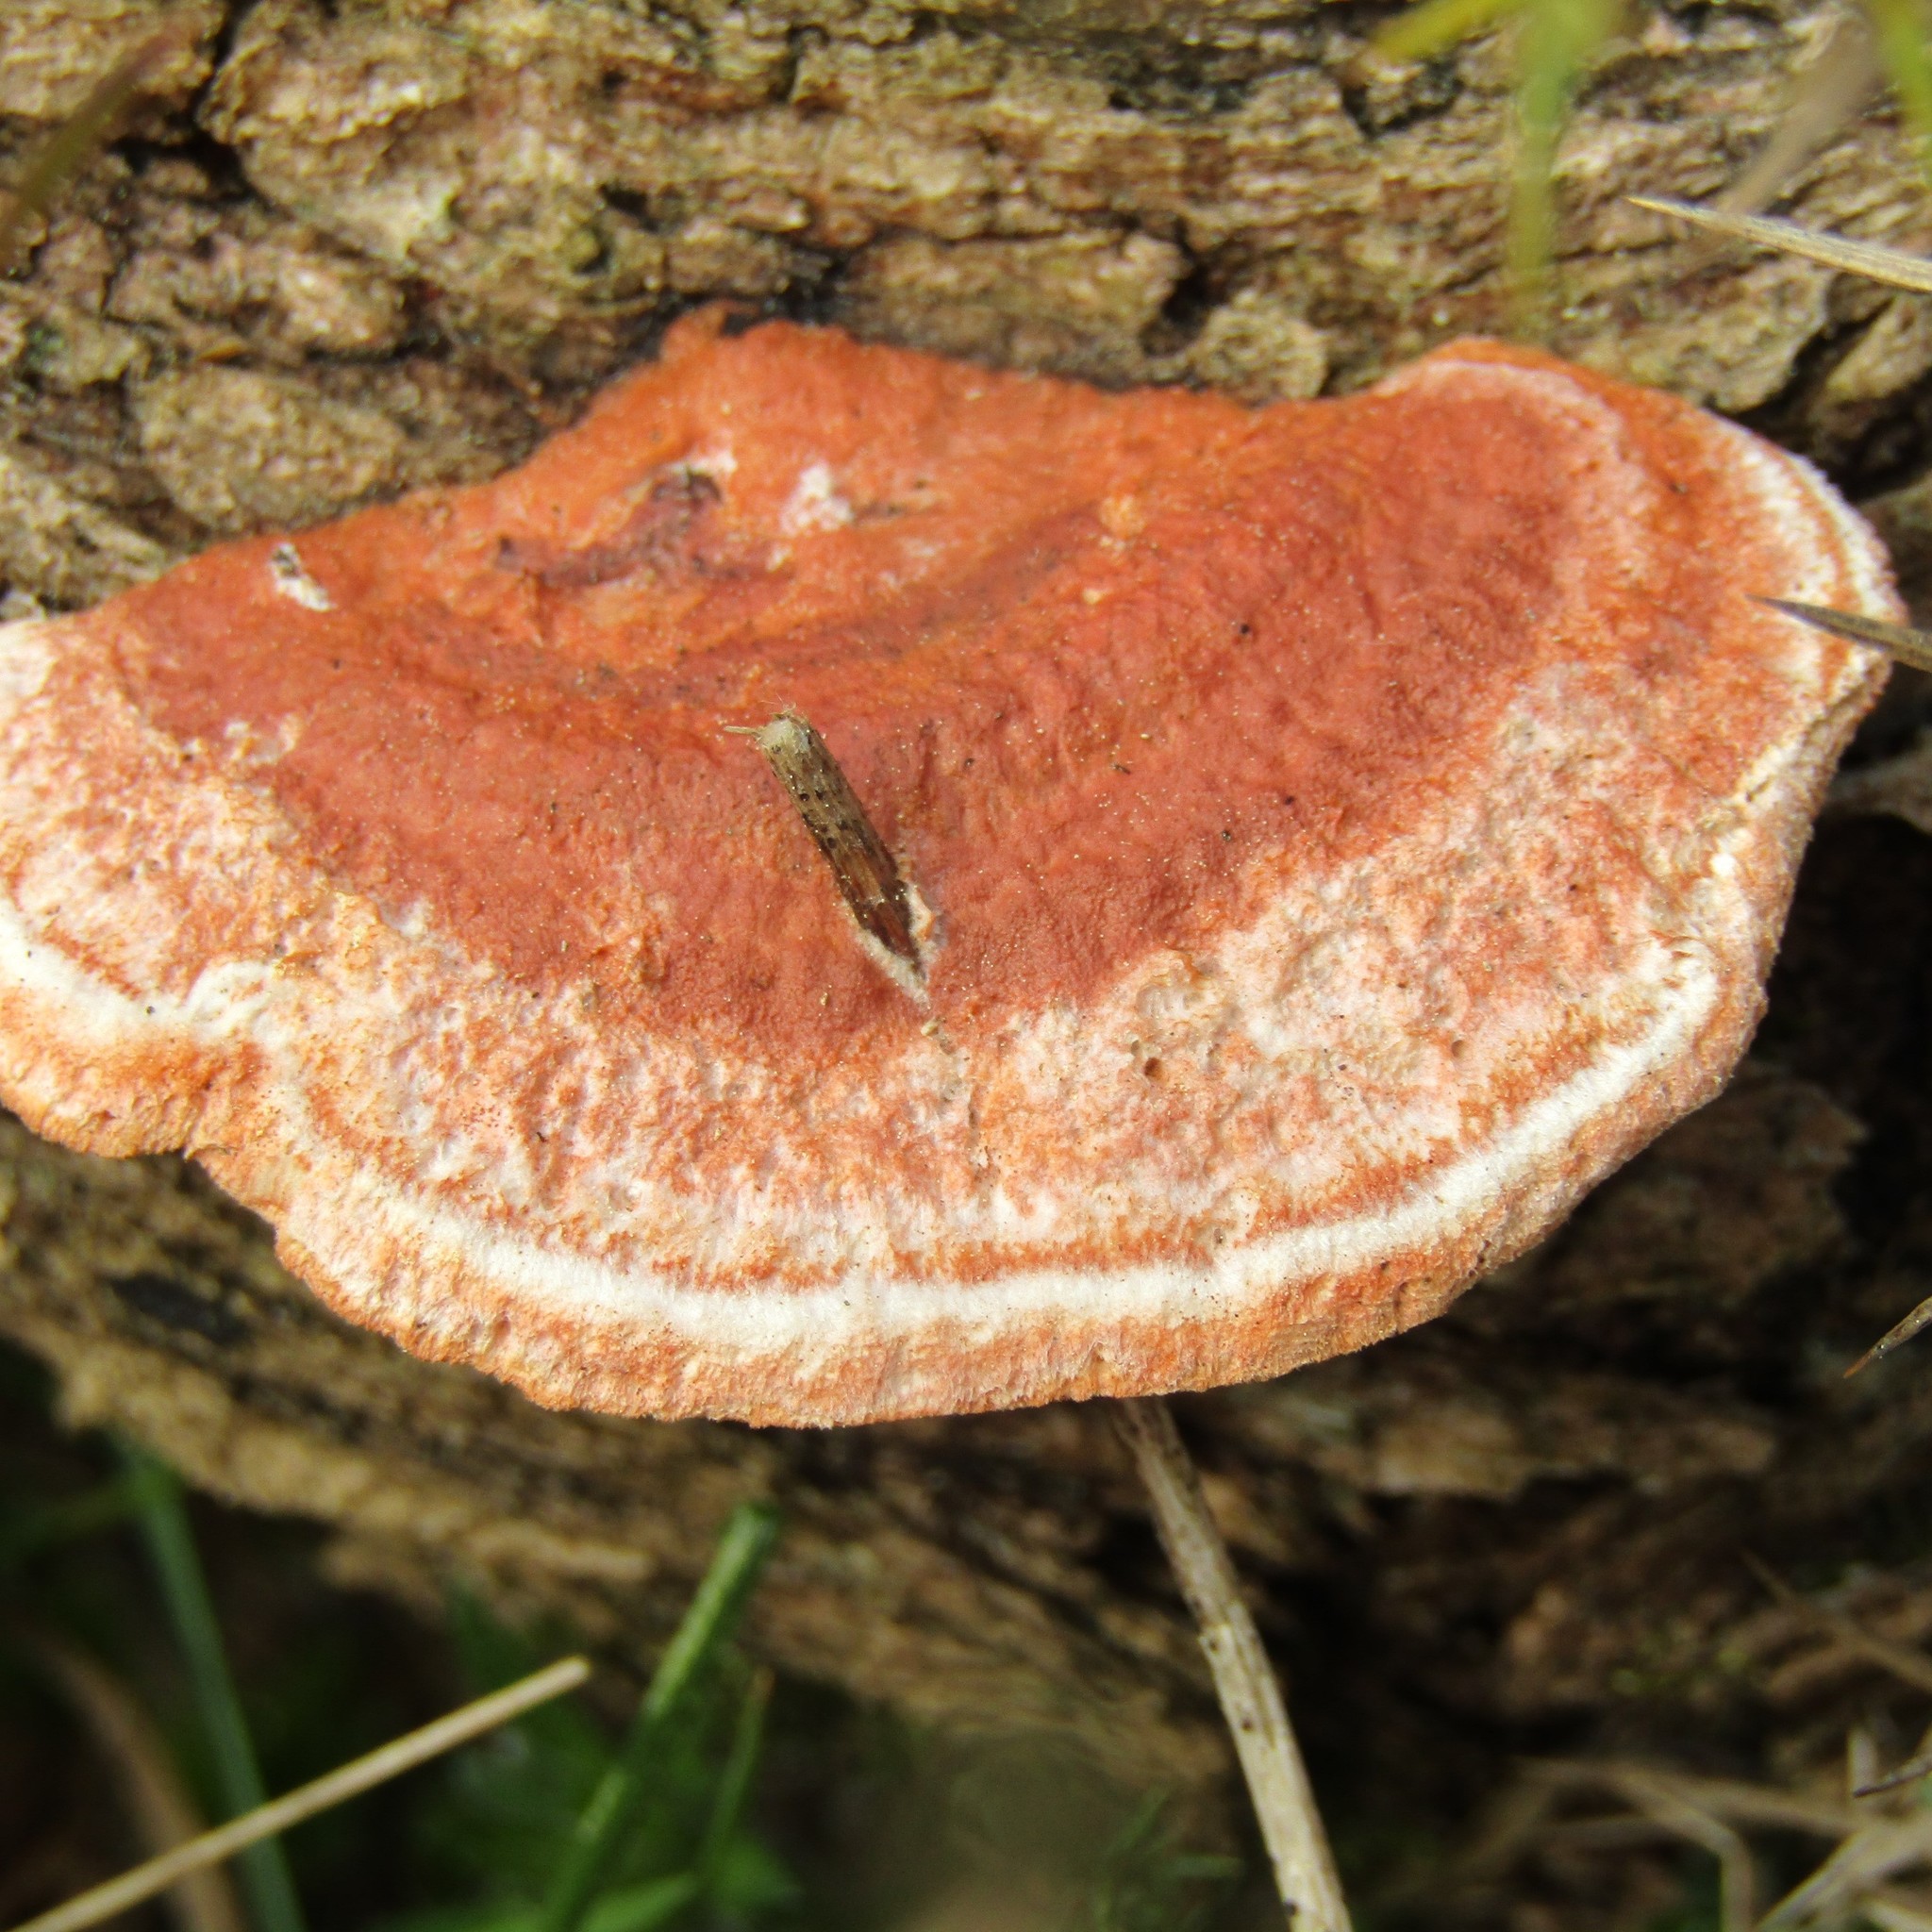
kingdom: Fungi
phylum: Basidiomycota
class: Agaricomycetes
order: Polyporales
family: Polyporaceae
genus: Trametes
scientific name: Trametes coccinea
